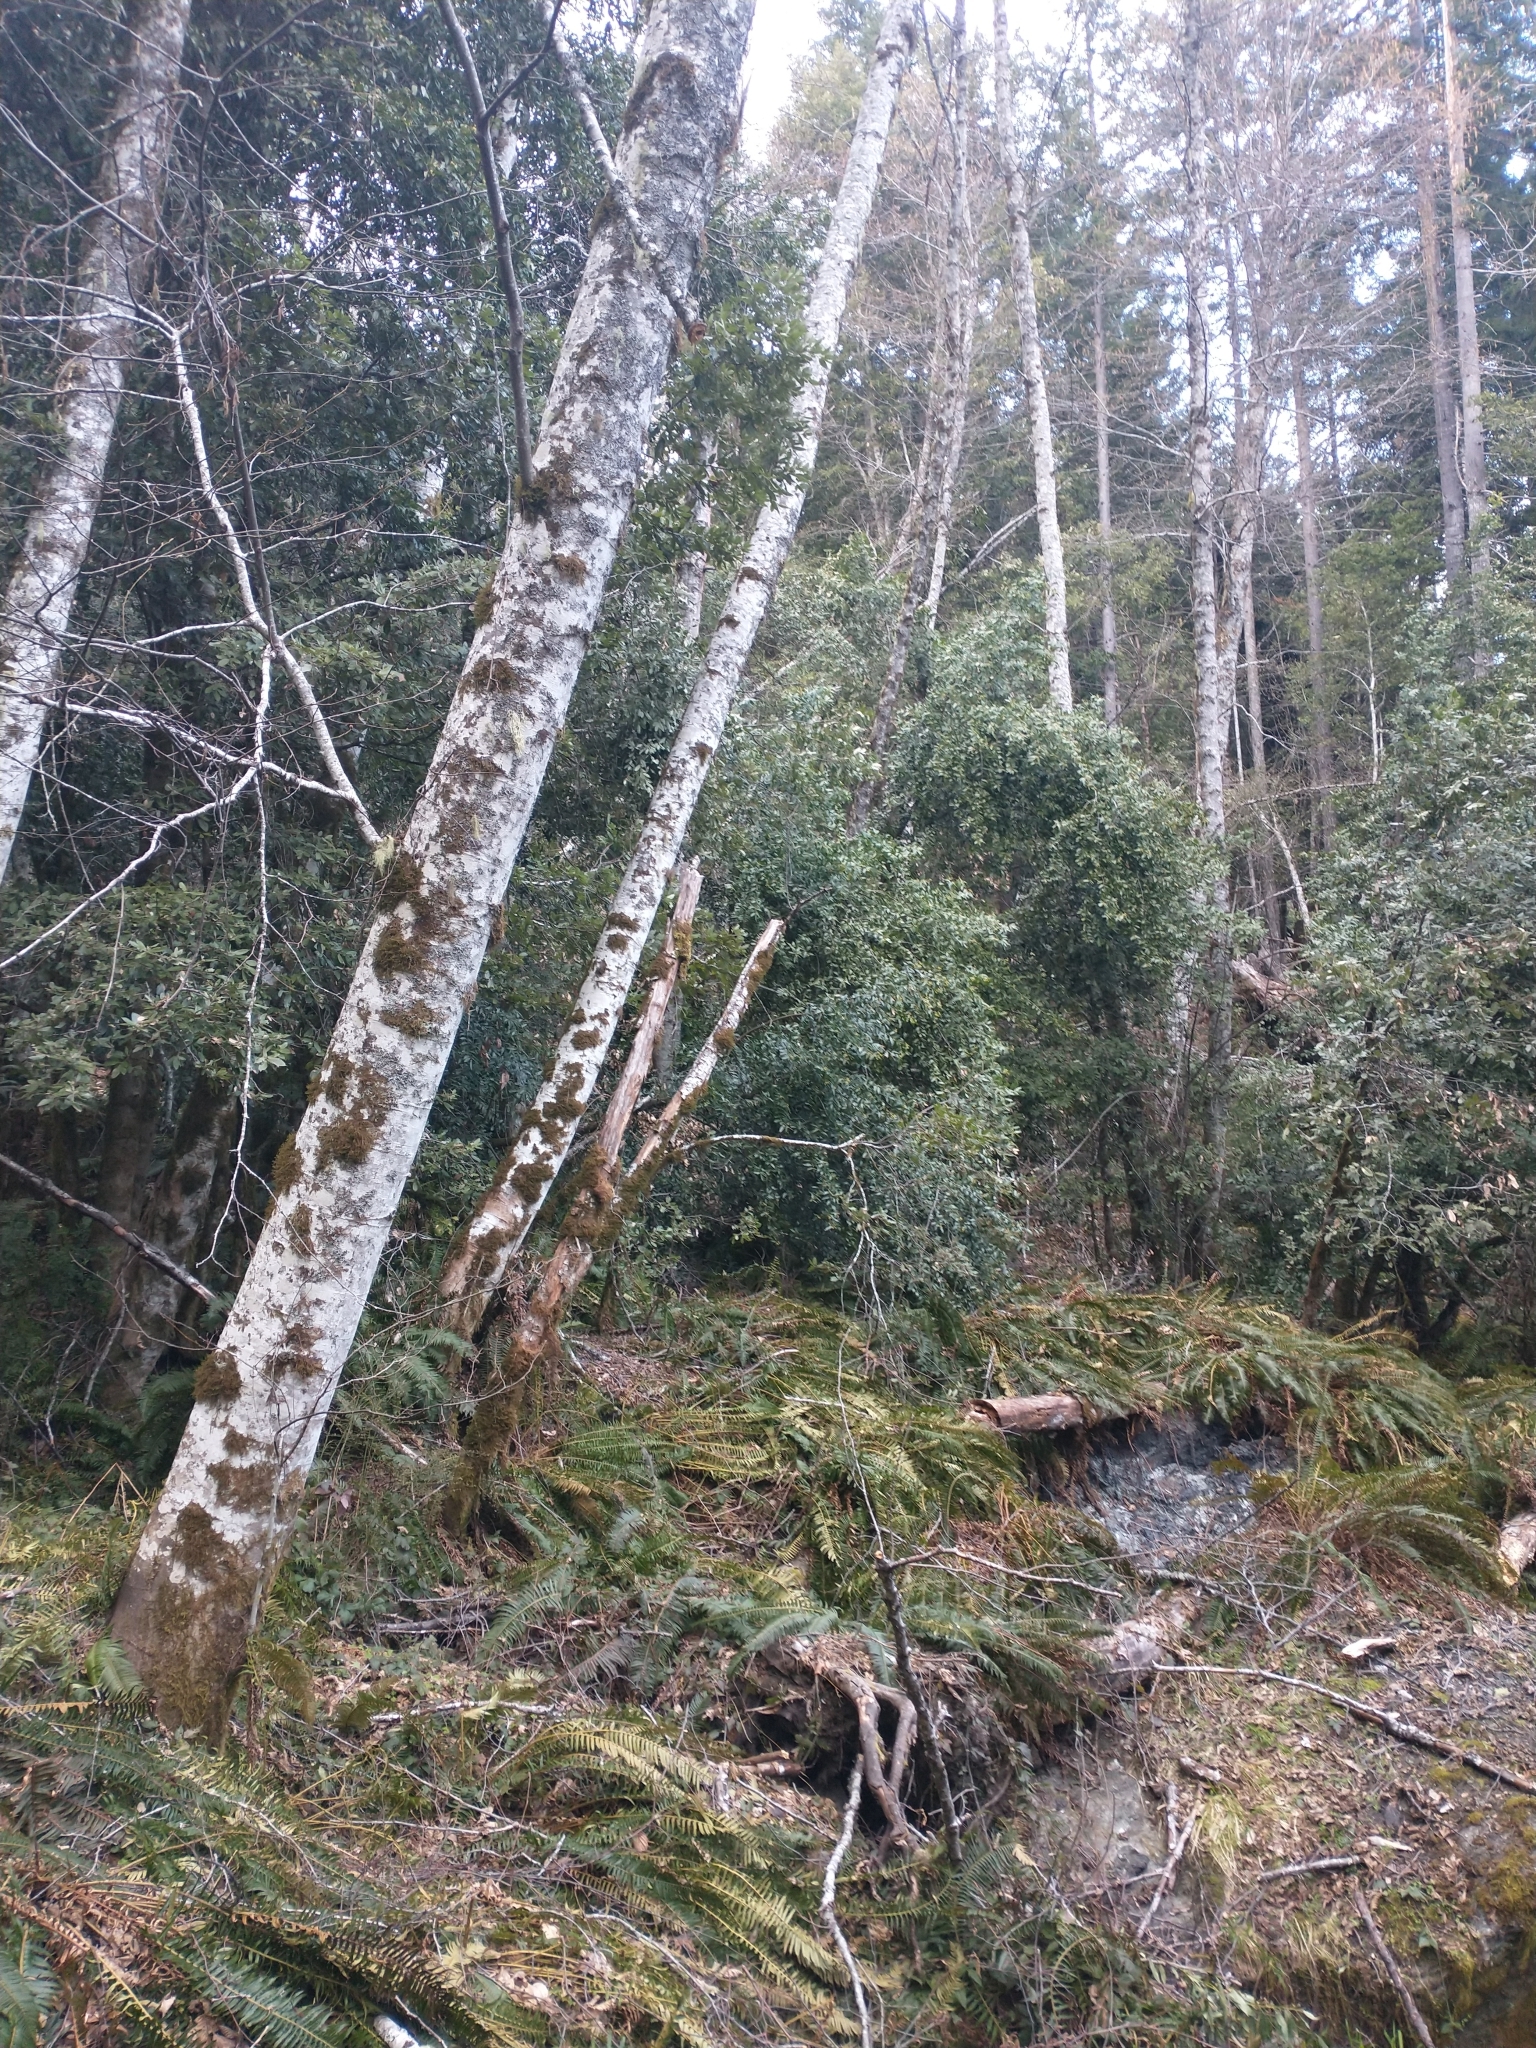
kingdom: Plantae
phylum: Tracheophyta
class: Magnoliopsida
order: Fagales
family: Betulaceae
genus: Alnus
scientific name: Alnus rubra
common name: Red alder
